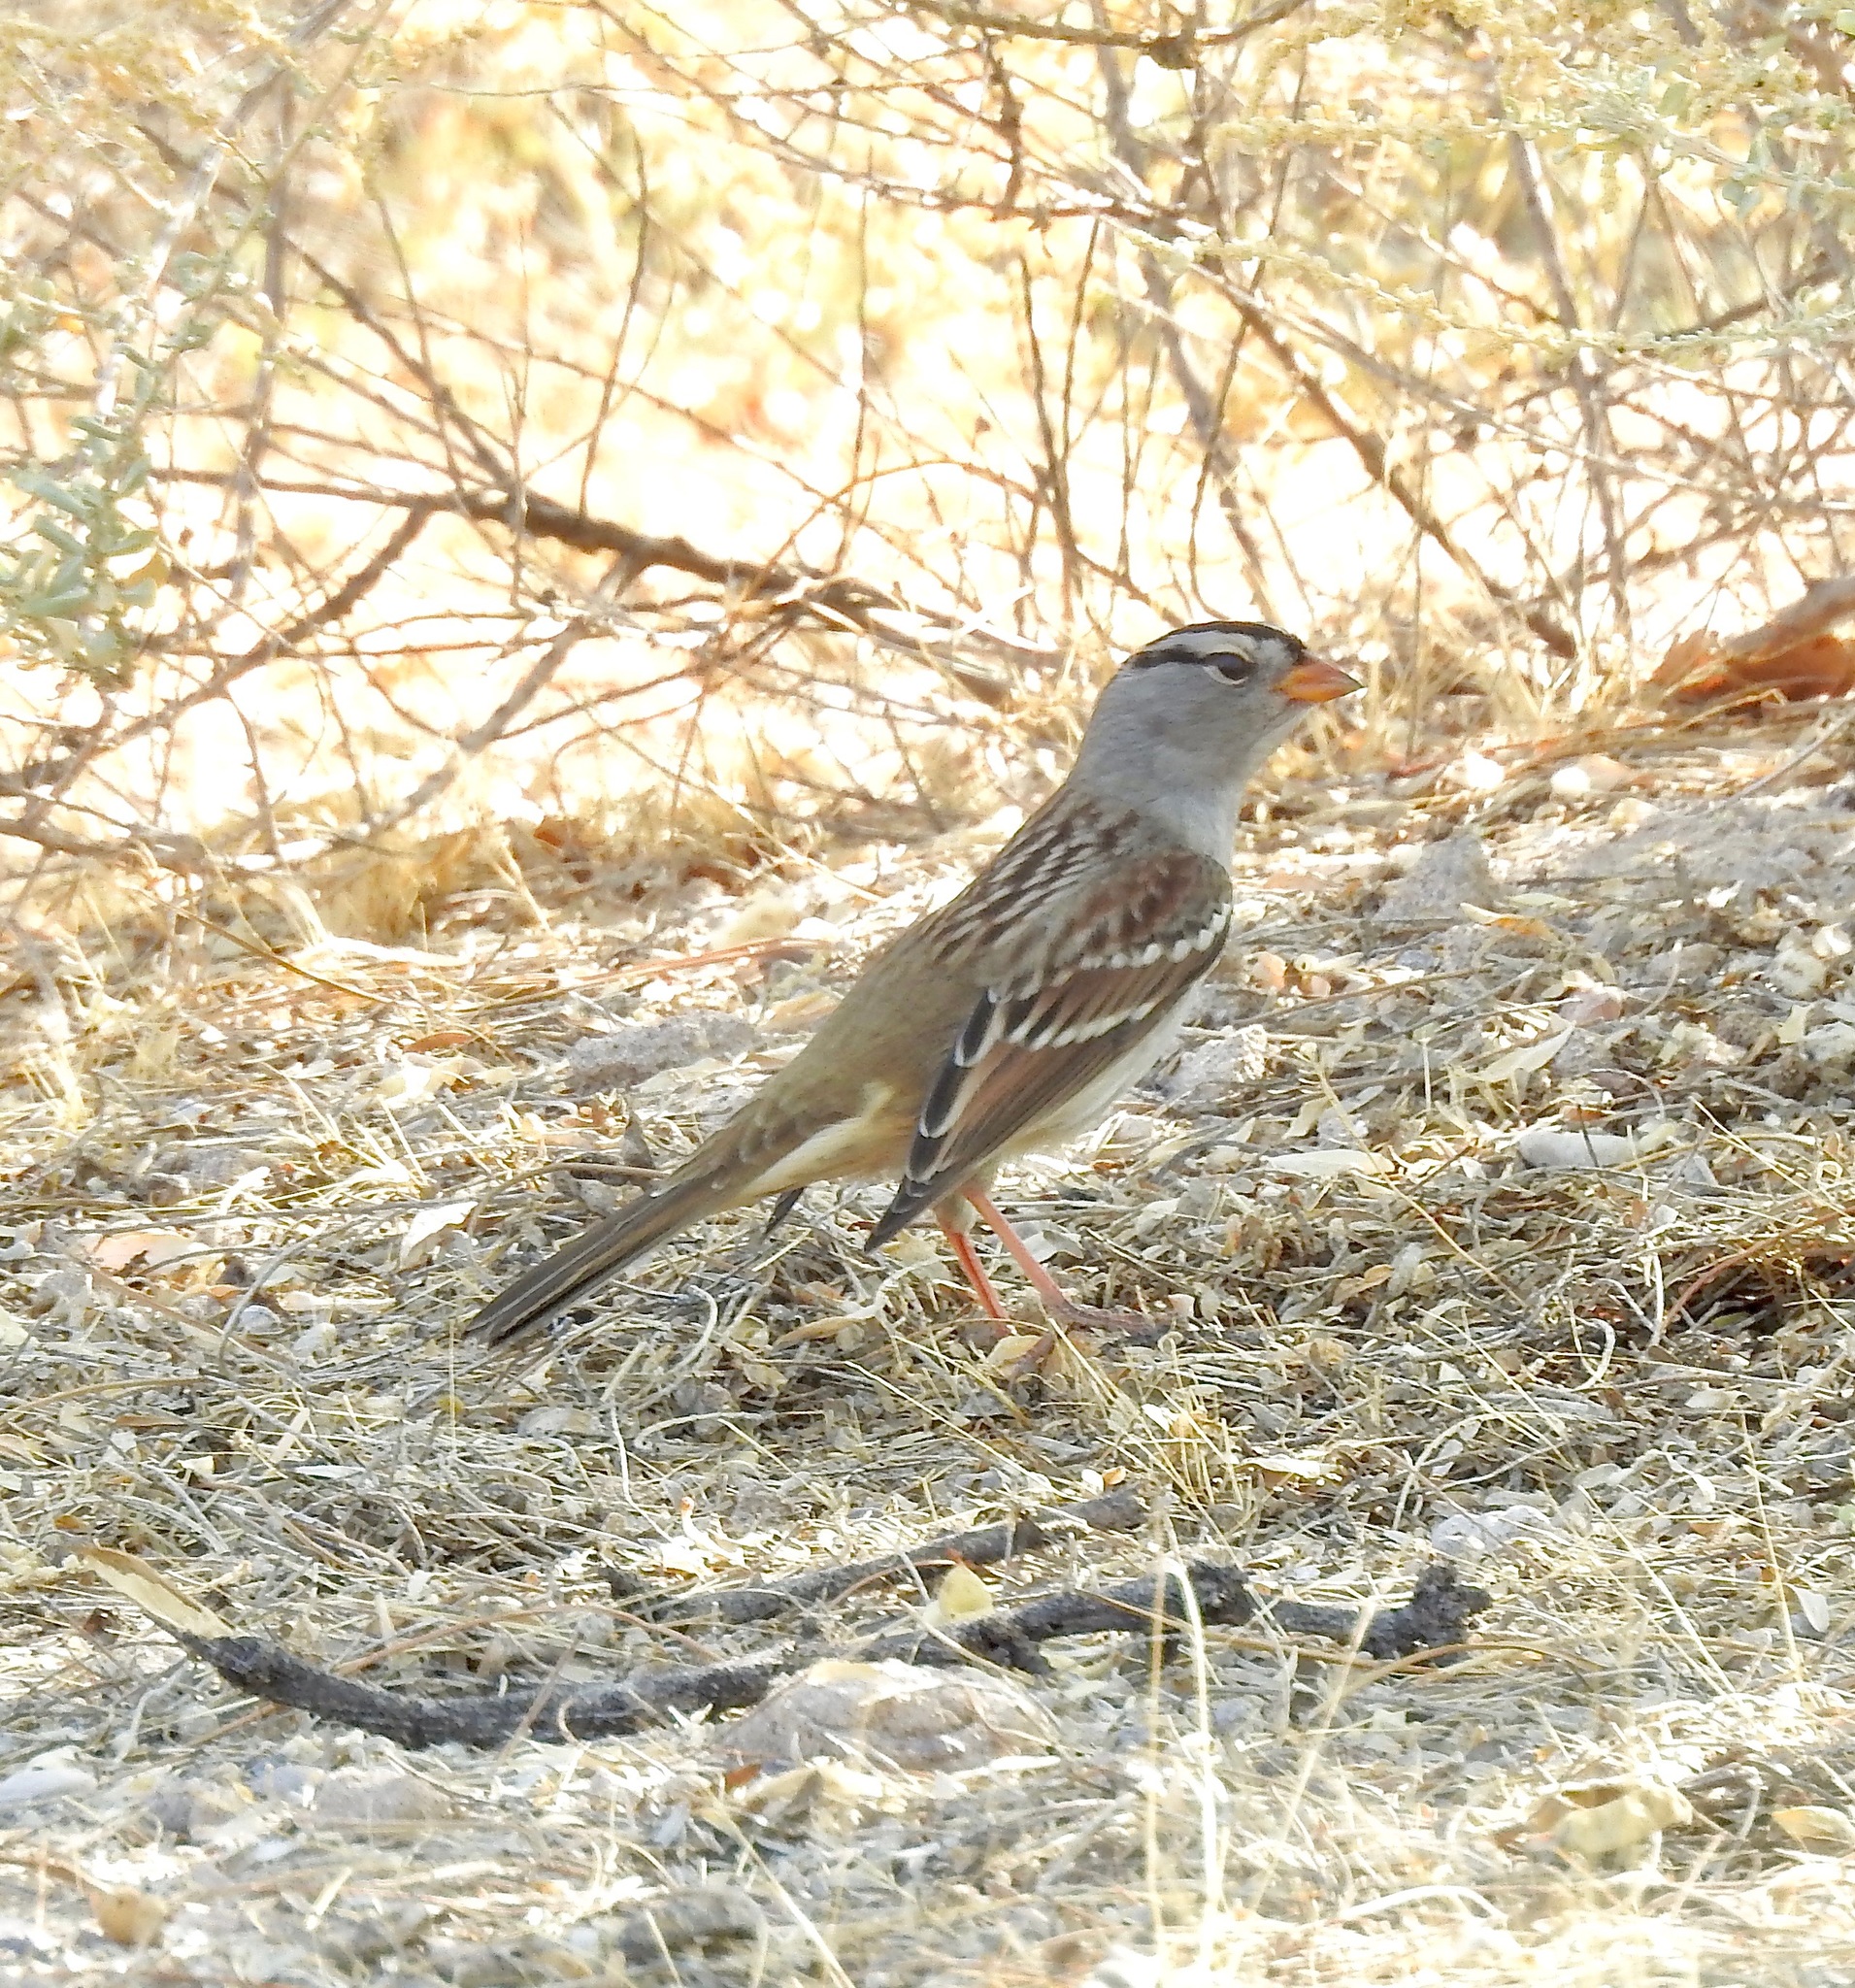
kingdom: Animalia
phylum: Chordata
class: Aves
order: Passeriformes
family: Passerellidae
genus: Zonotrichia
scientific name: Zonotrichia leucophrys
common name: White-crowned sparrow
